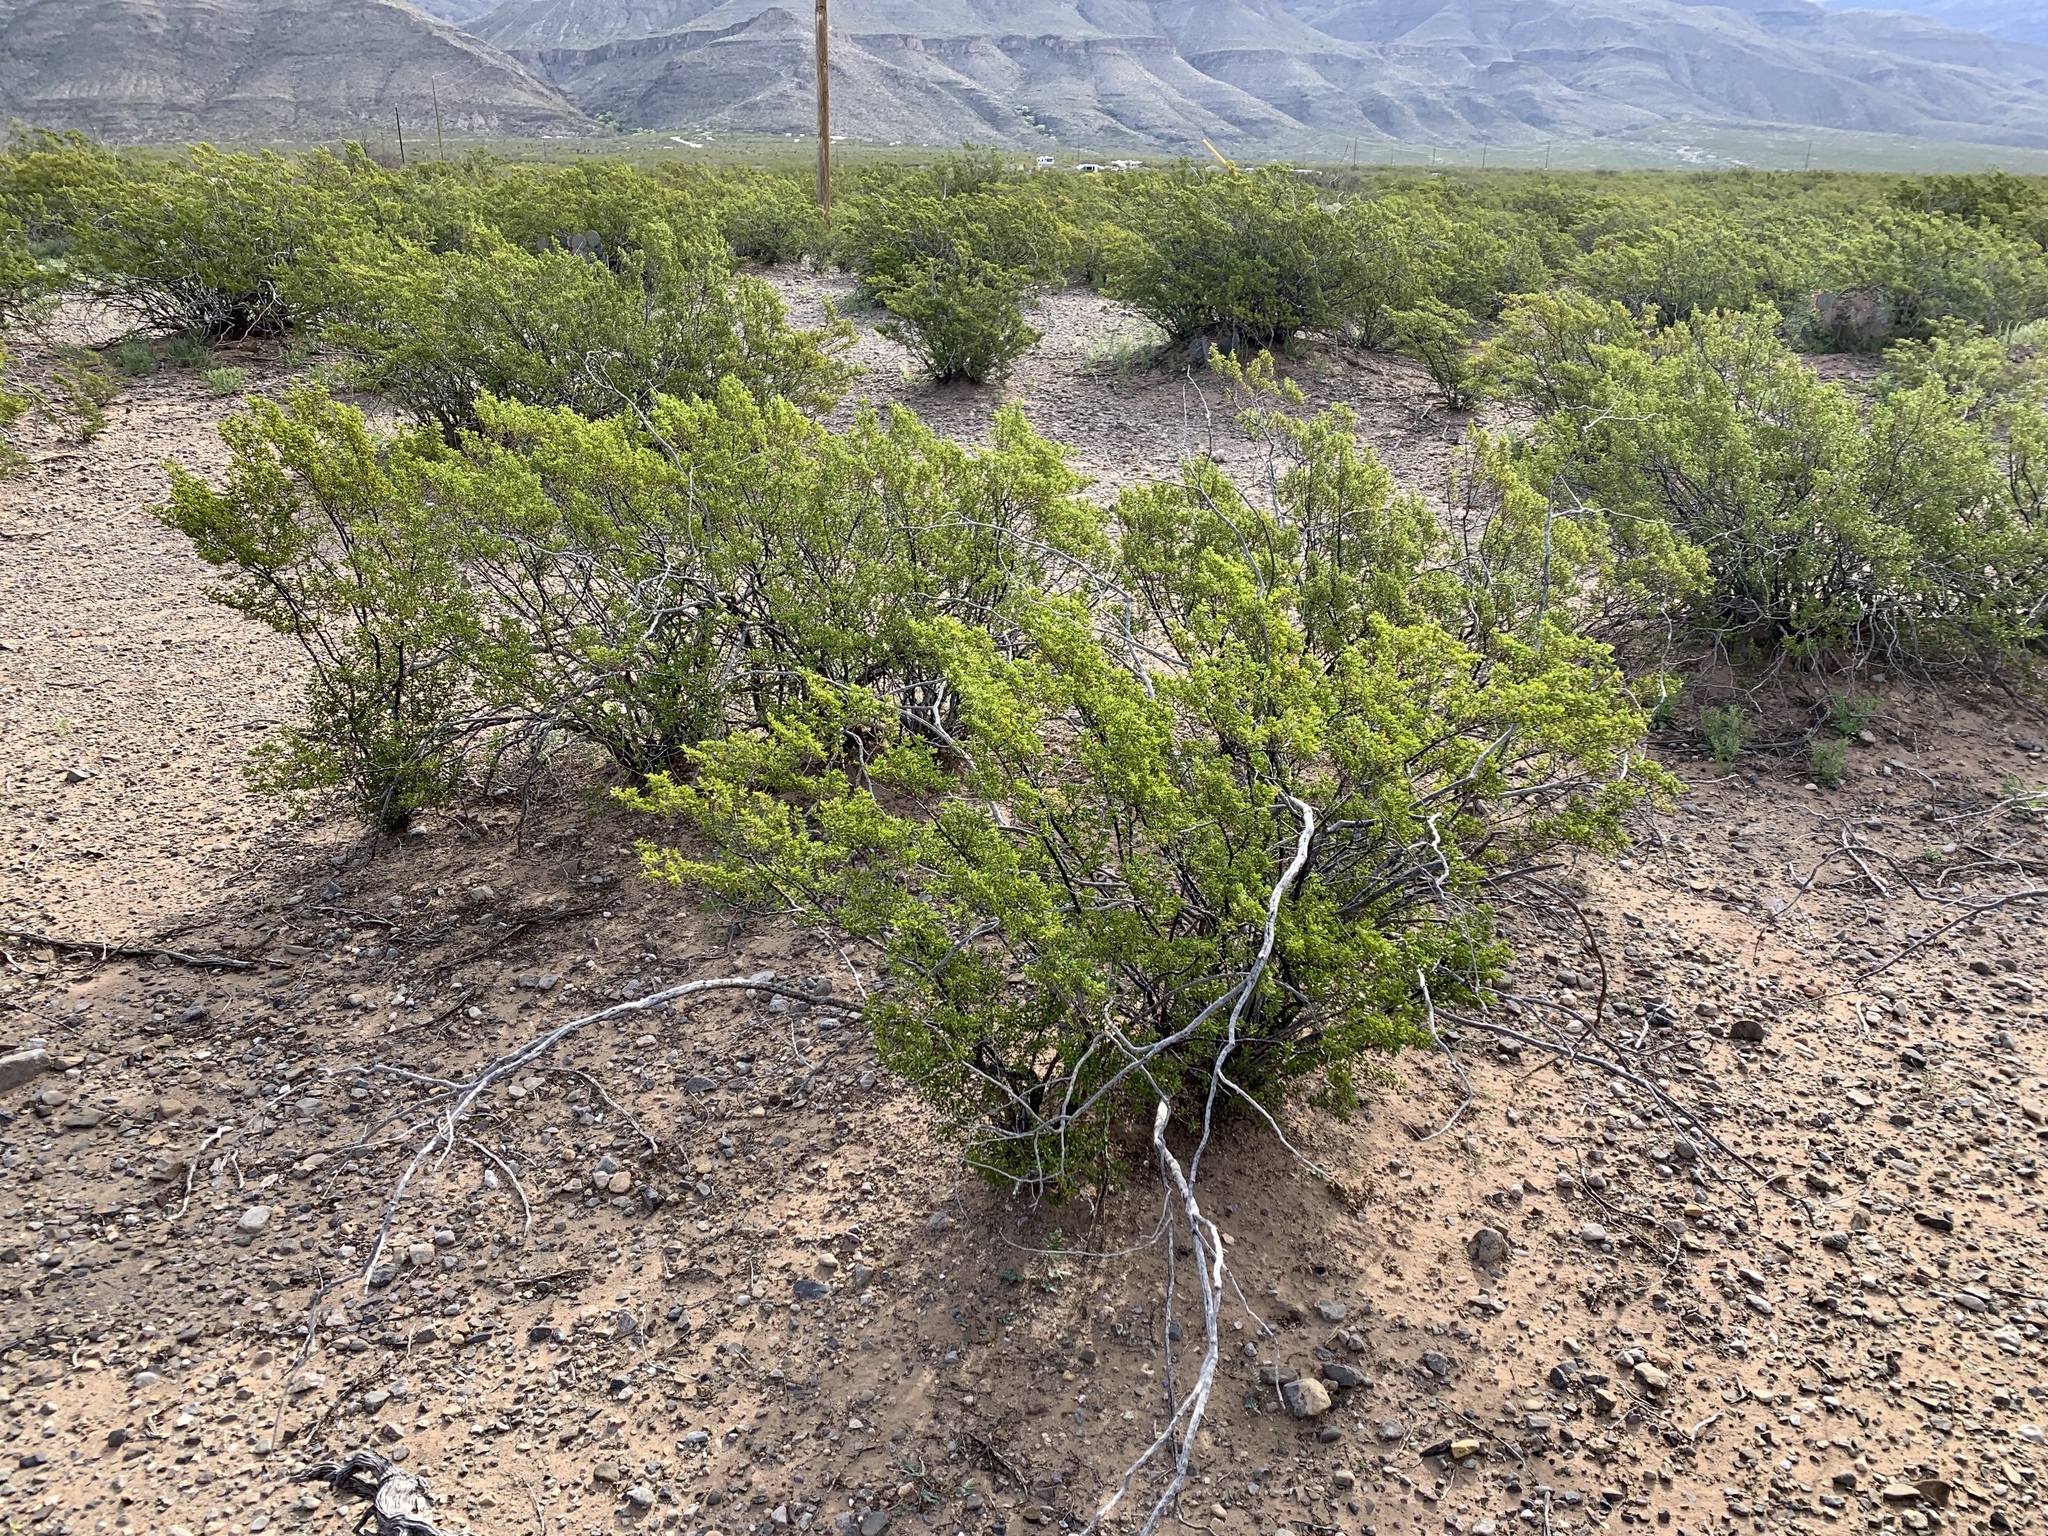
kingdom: Plantae
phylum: Tracheophyta
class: Magnoliopsida
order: Zygophyllales
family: Zygophyllaceae
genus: Larrea
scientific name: Larrea tridentata
